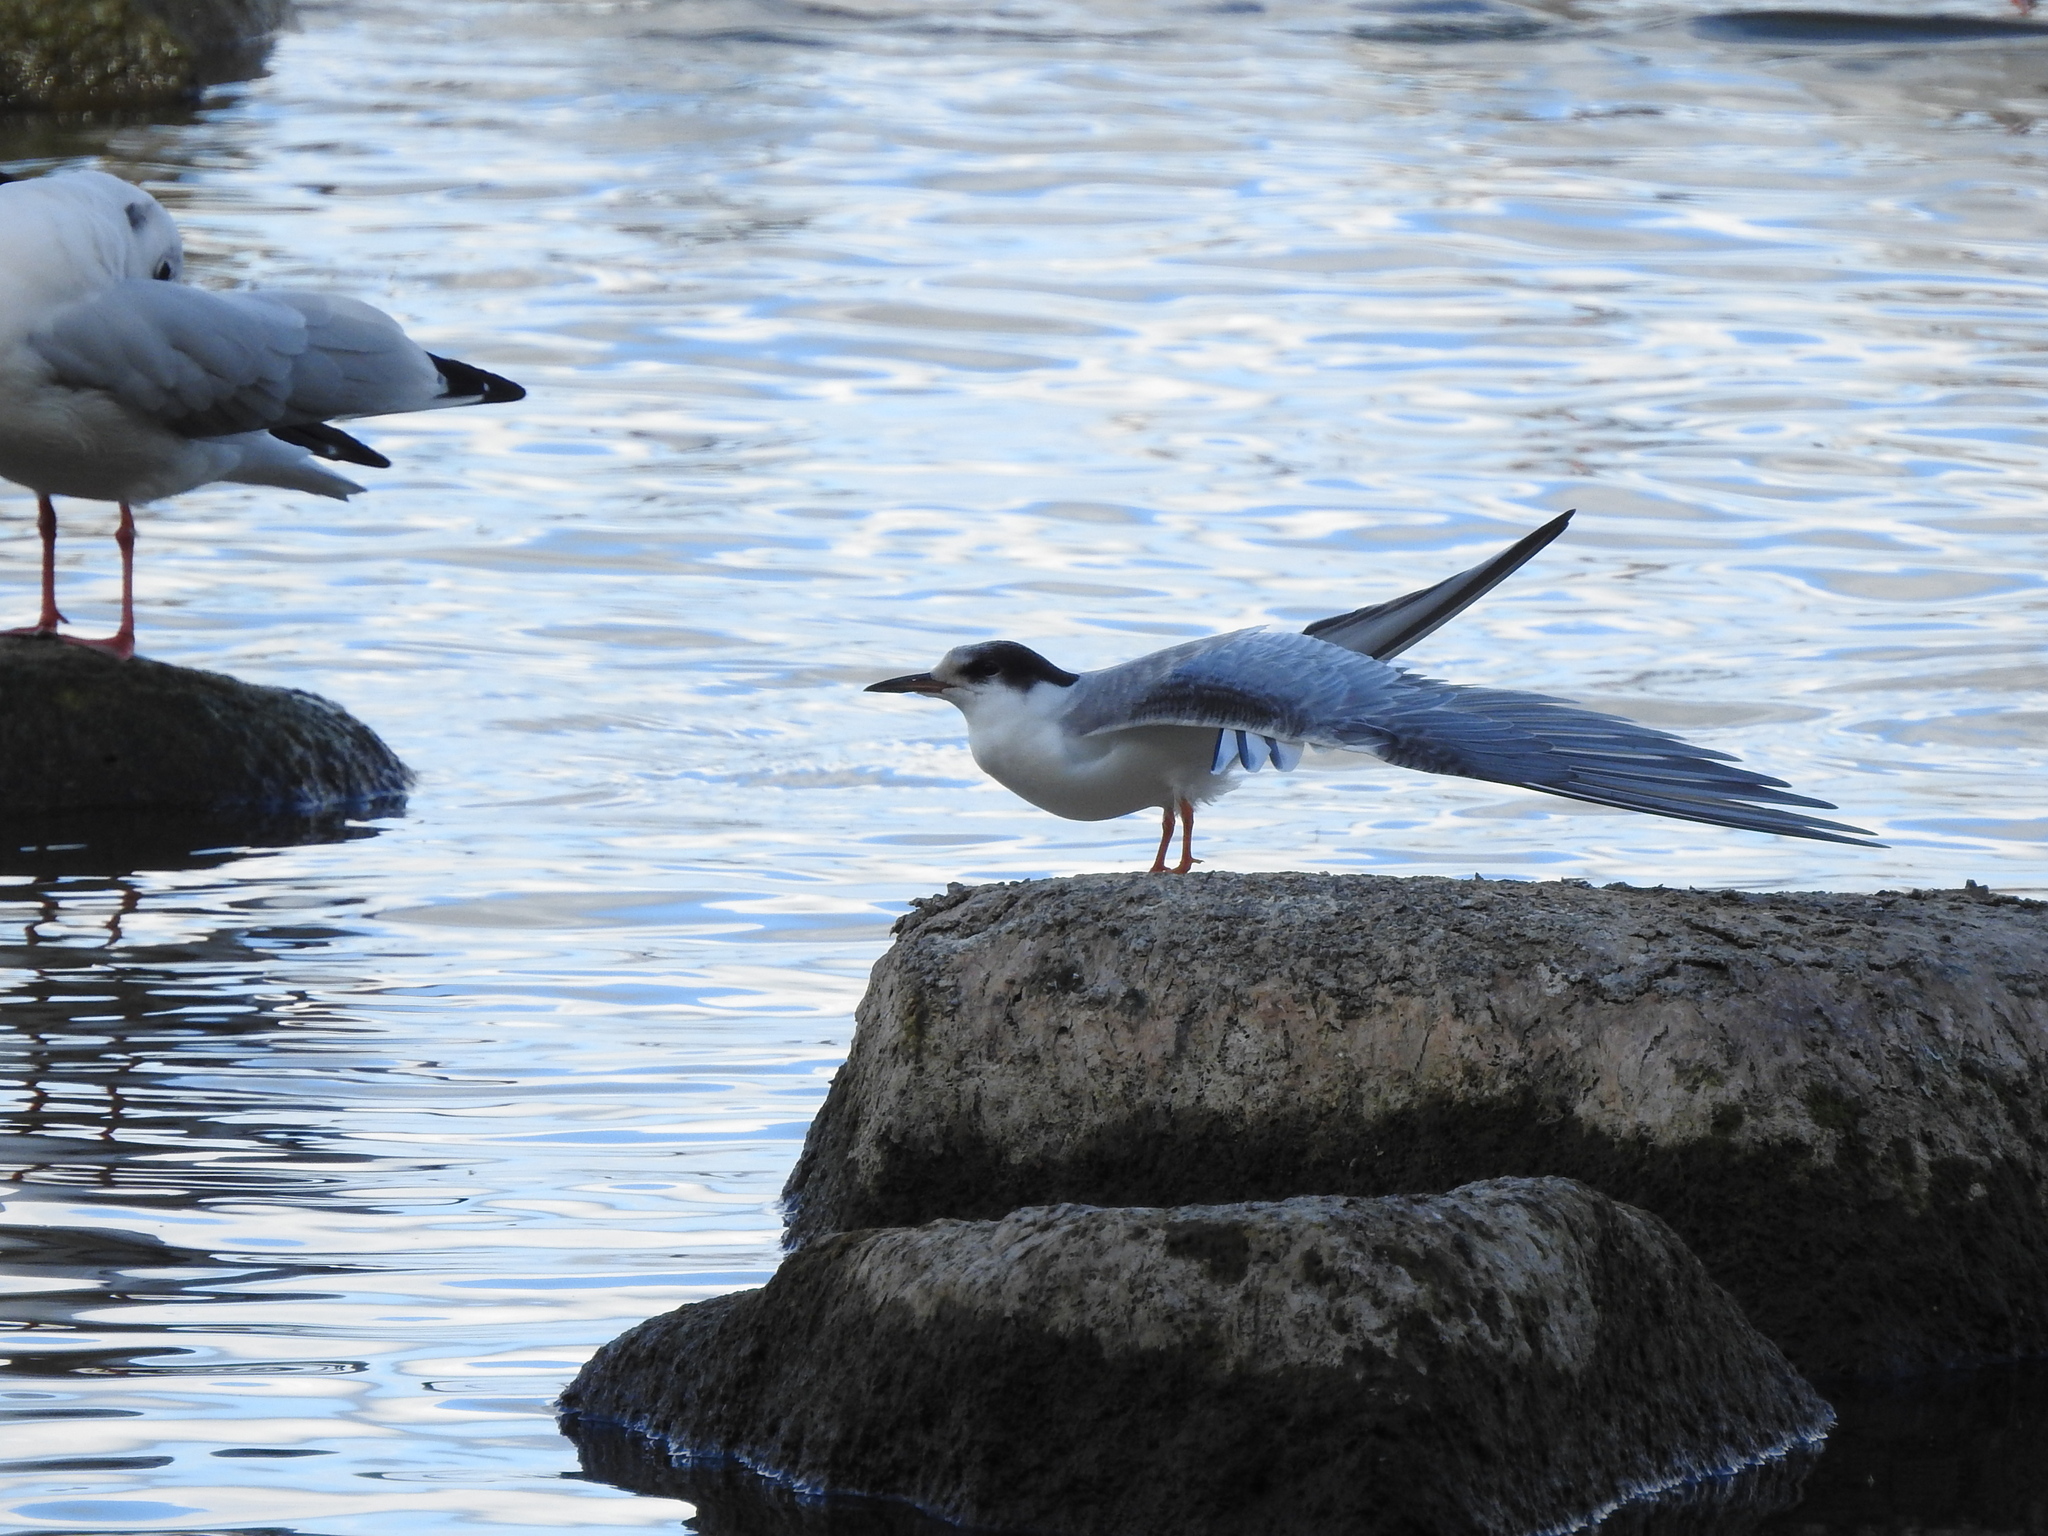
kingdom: Animalia
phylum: Chordata
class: Aves
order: Charadriiformes
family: Laridae
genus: Sterna
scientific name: Sterna hirundo
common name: Common tern
